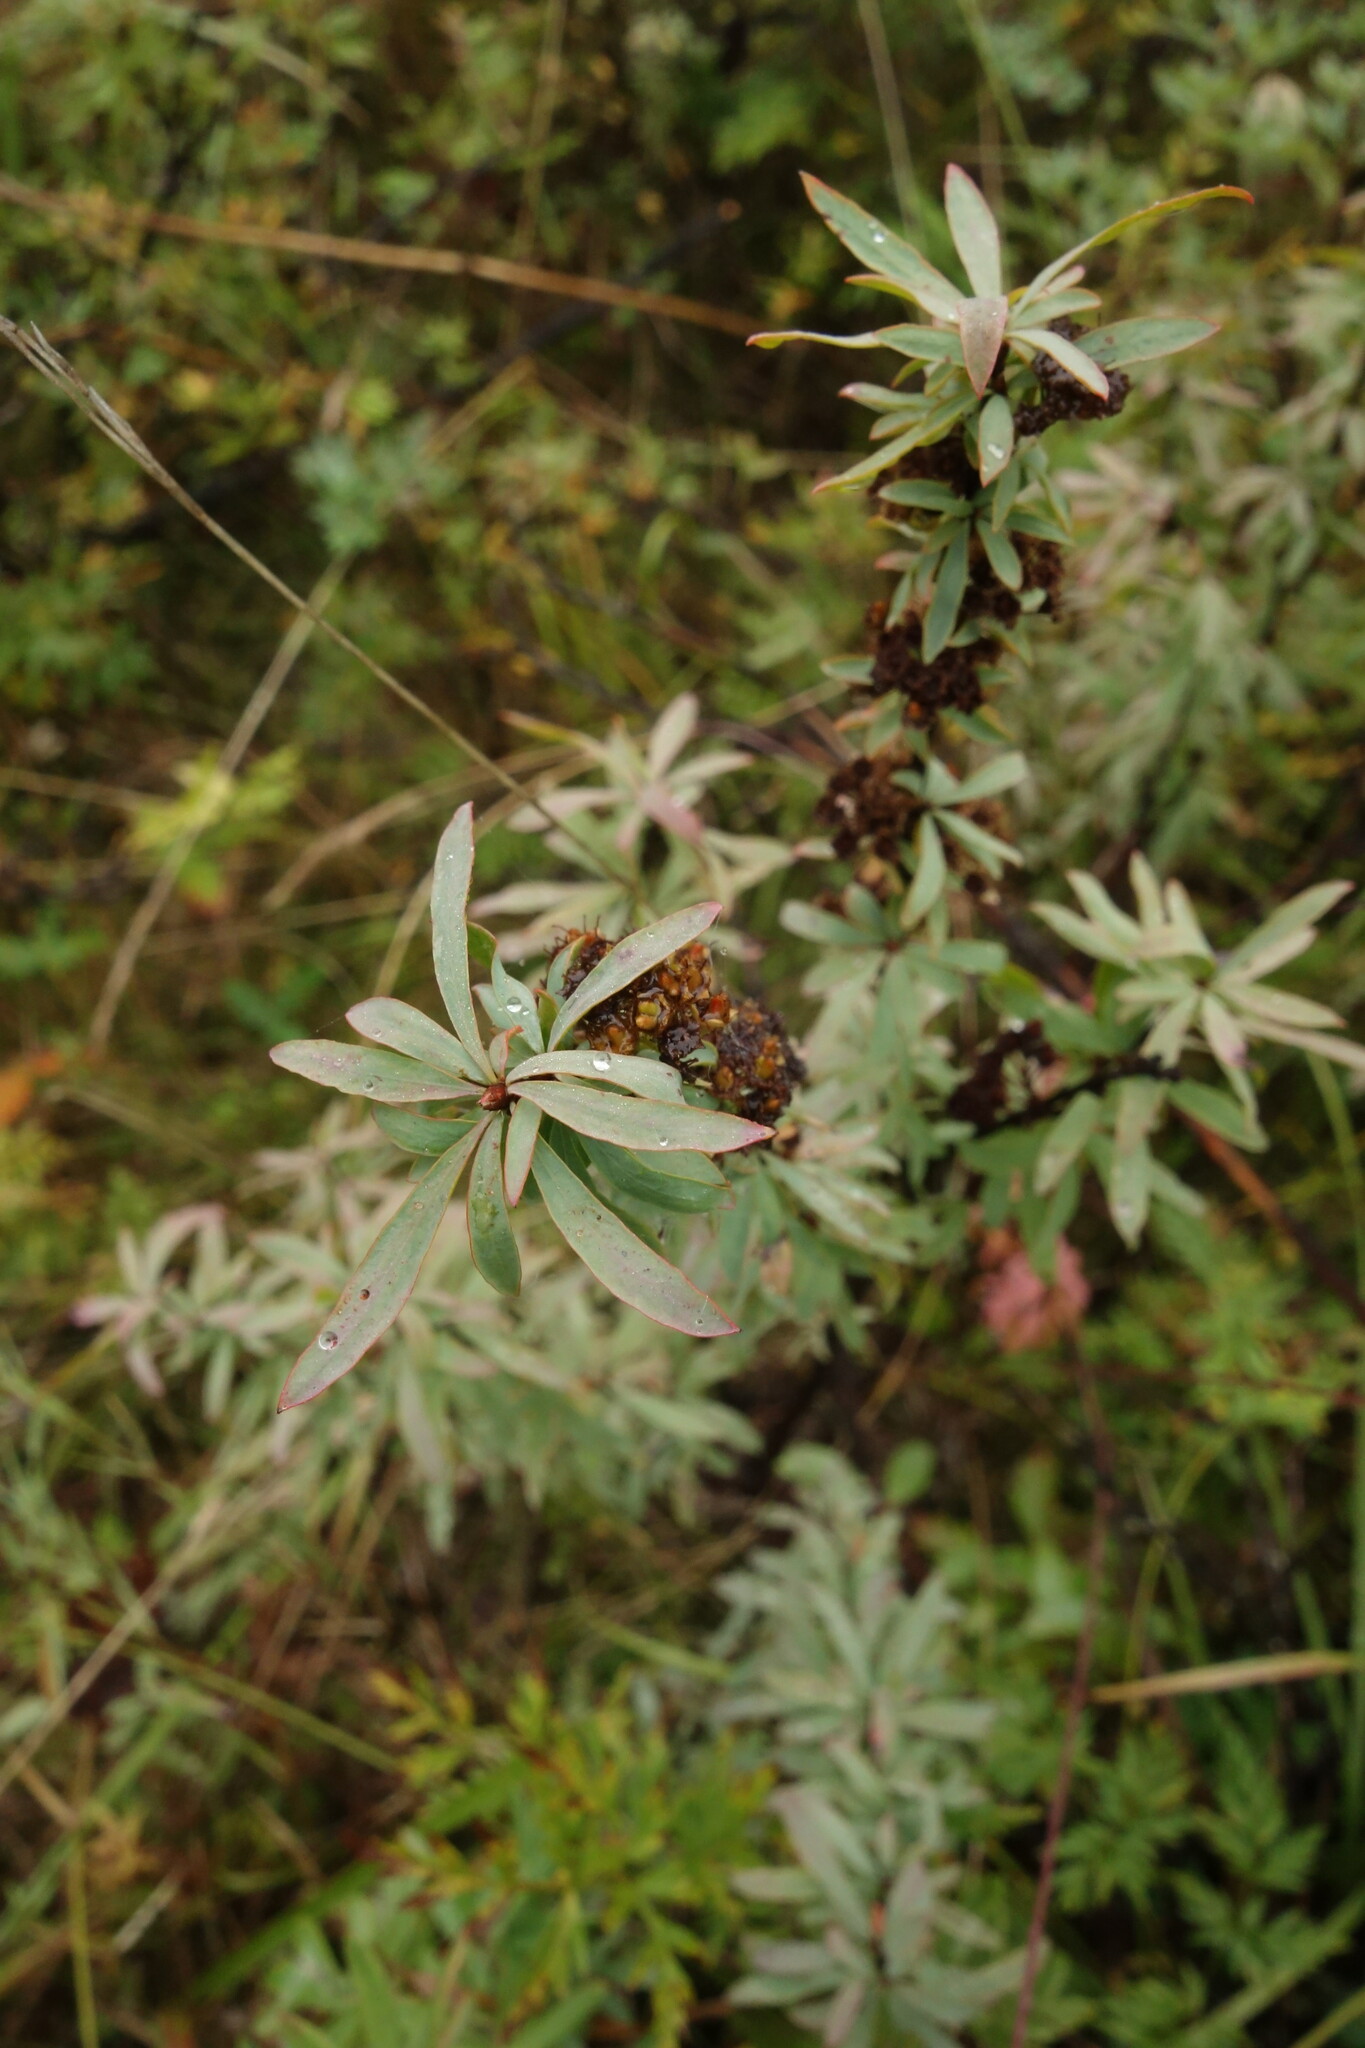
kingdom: Plantae
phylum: Tracheophyta
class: Magnoliopsida
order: Rosales
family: Rosaceae
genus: Spiraea
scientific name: Spiraea alpina
